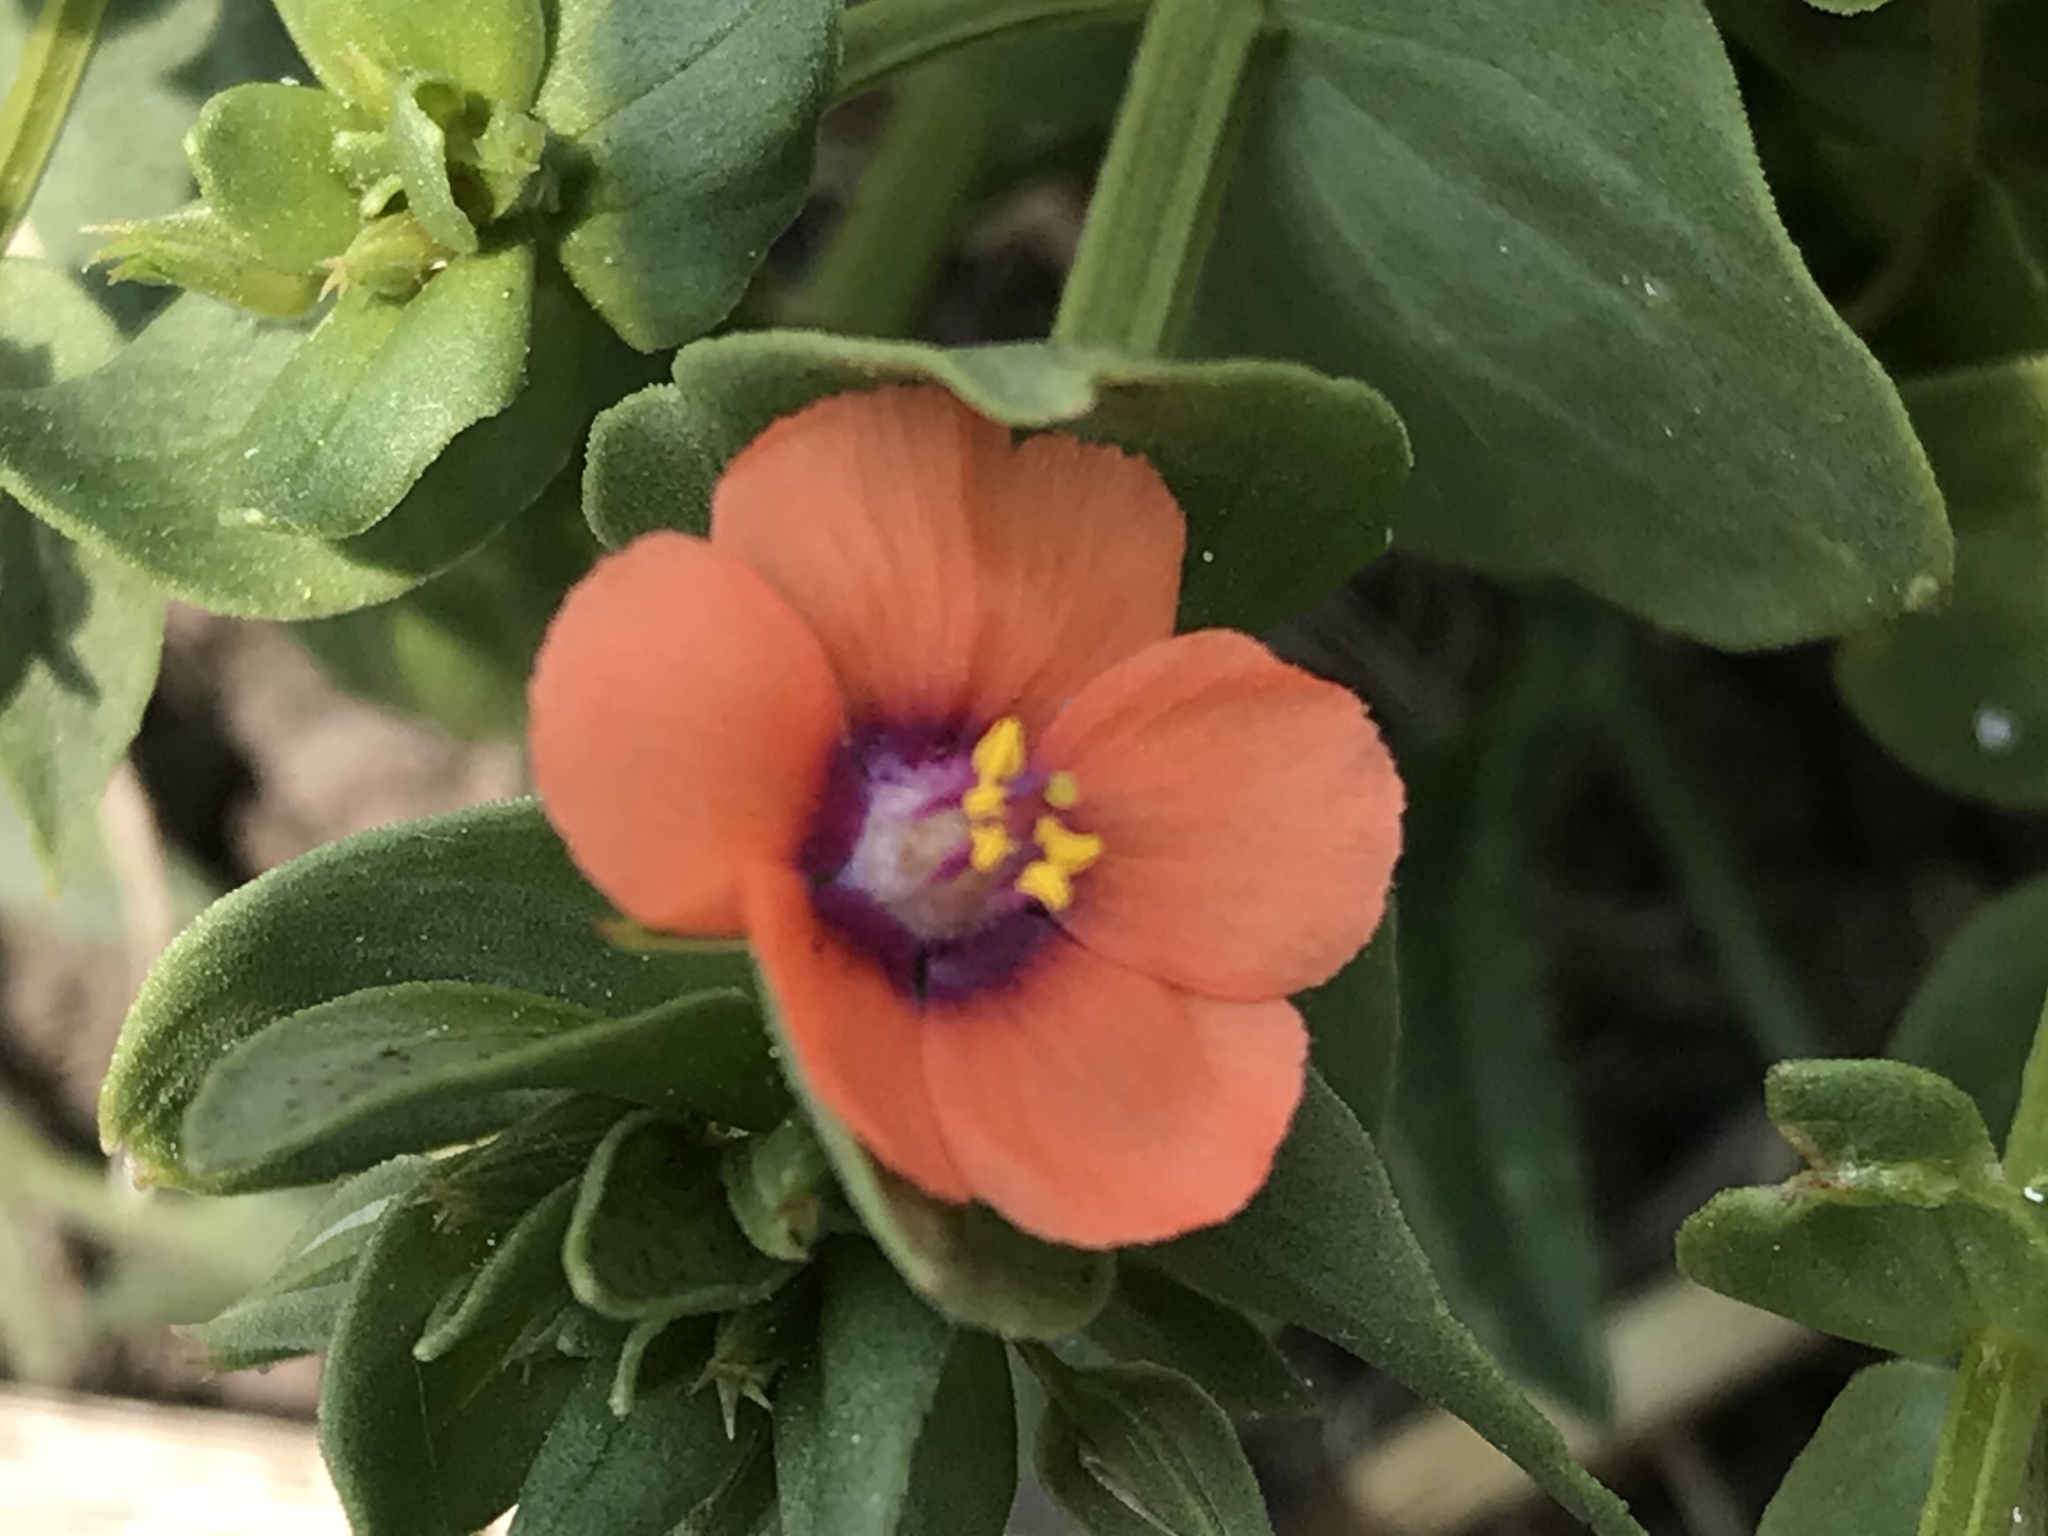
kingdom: Plantae
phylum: Tracheophyta
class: Magnoliopsida
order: Ericales
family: Primulaceae
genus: Lysimachia
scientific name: Lysimachia arvensis
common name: Scarlet pimpernel
